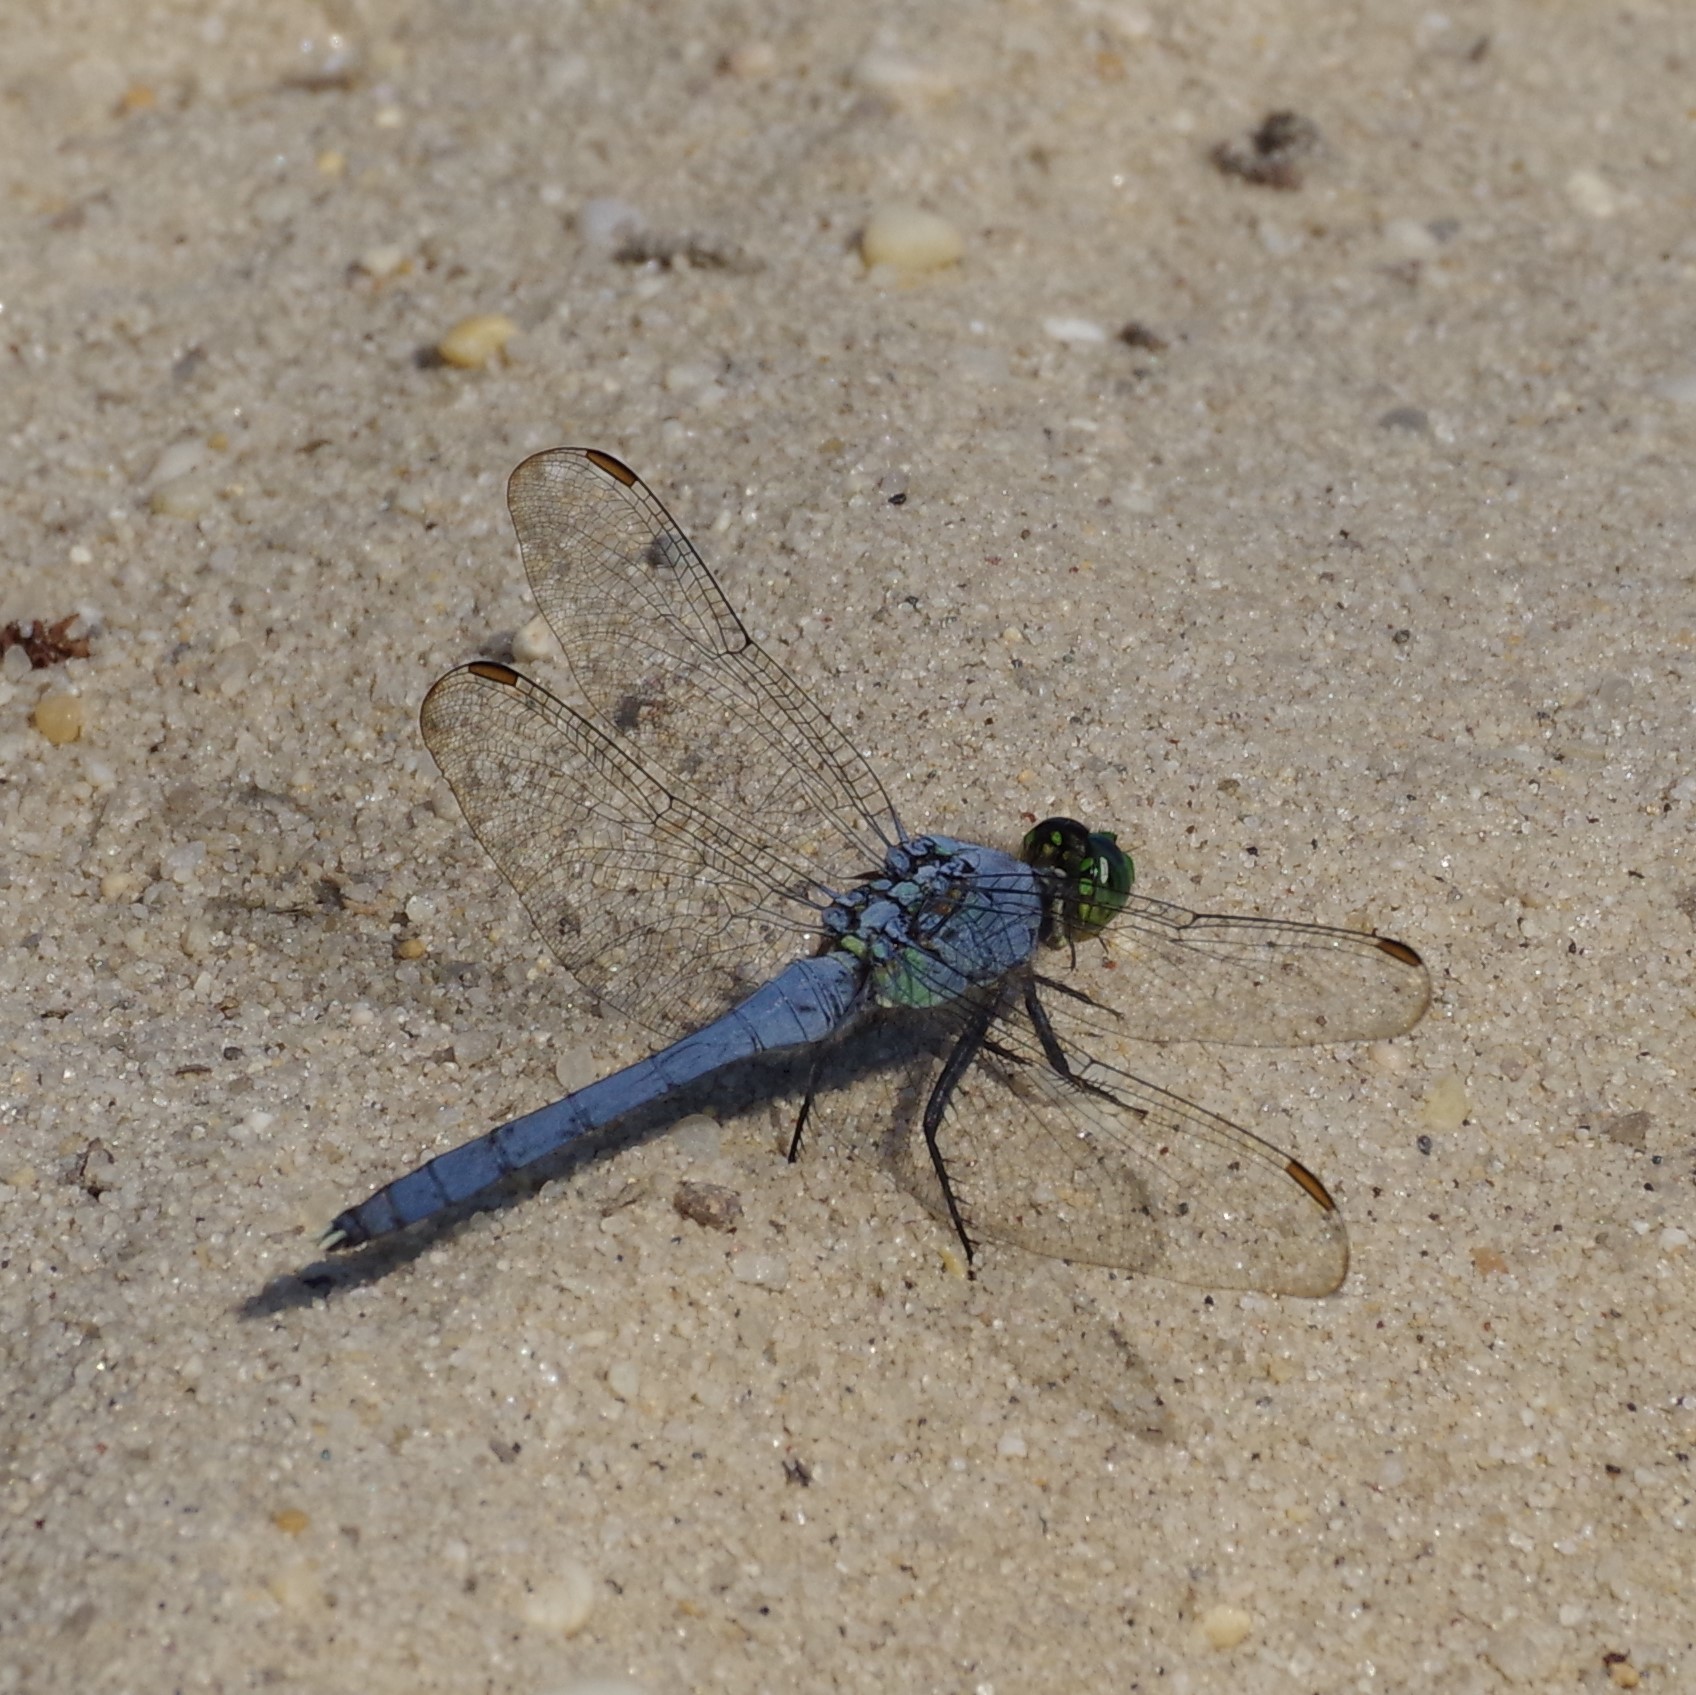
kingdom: Animalia
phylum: Arthropoda
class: Insecta
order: Odonata
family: Libellulidae
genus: Erythemis
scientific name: Erythemis simplicicollis
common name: Eastern pondhawk
